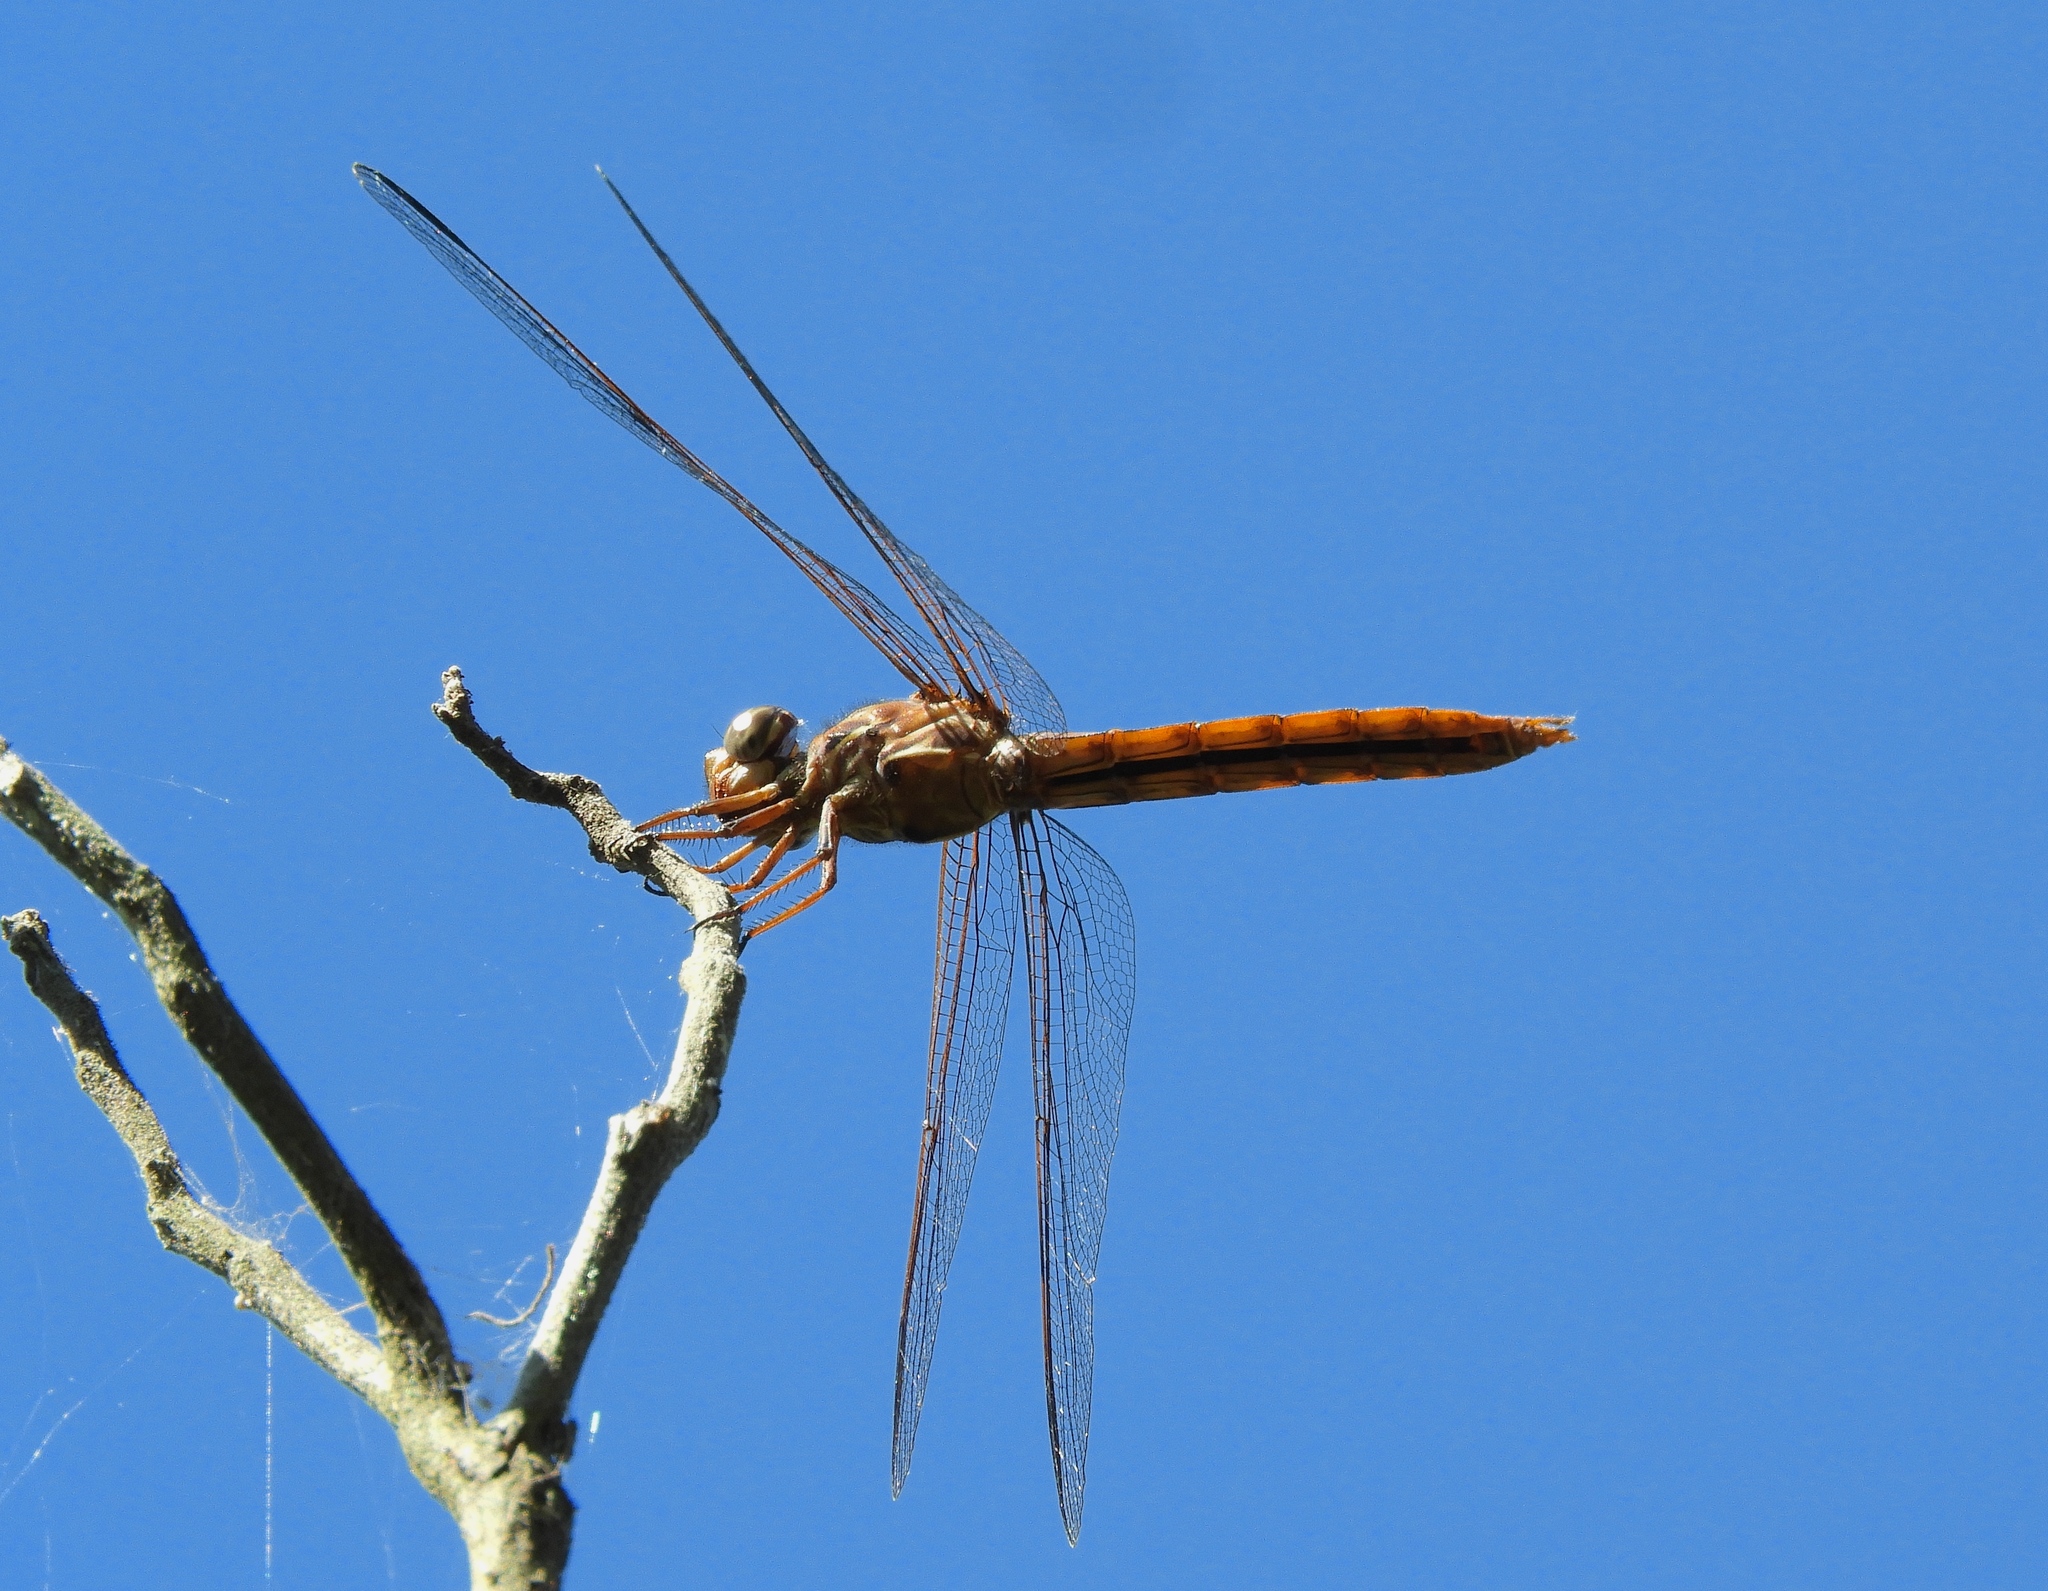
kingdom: Animalia
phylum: Arthropoda
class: Insecta
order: Odonata
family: Libellulidae
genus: Orthemis
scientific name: Orthemis ferruginea
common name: Roseate skimmer
